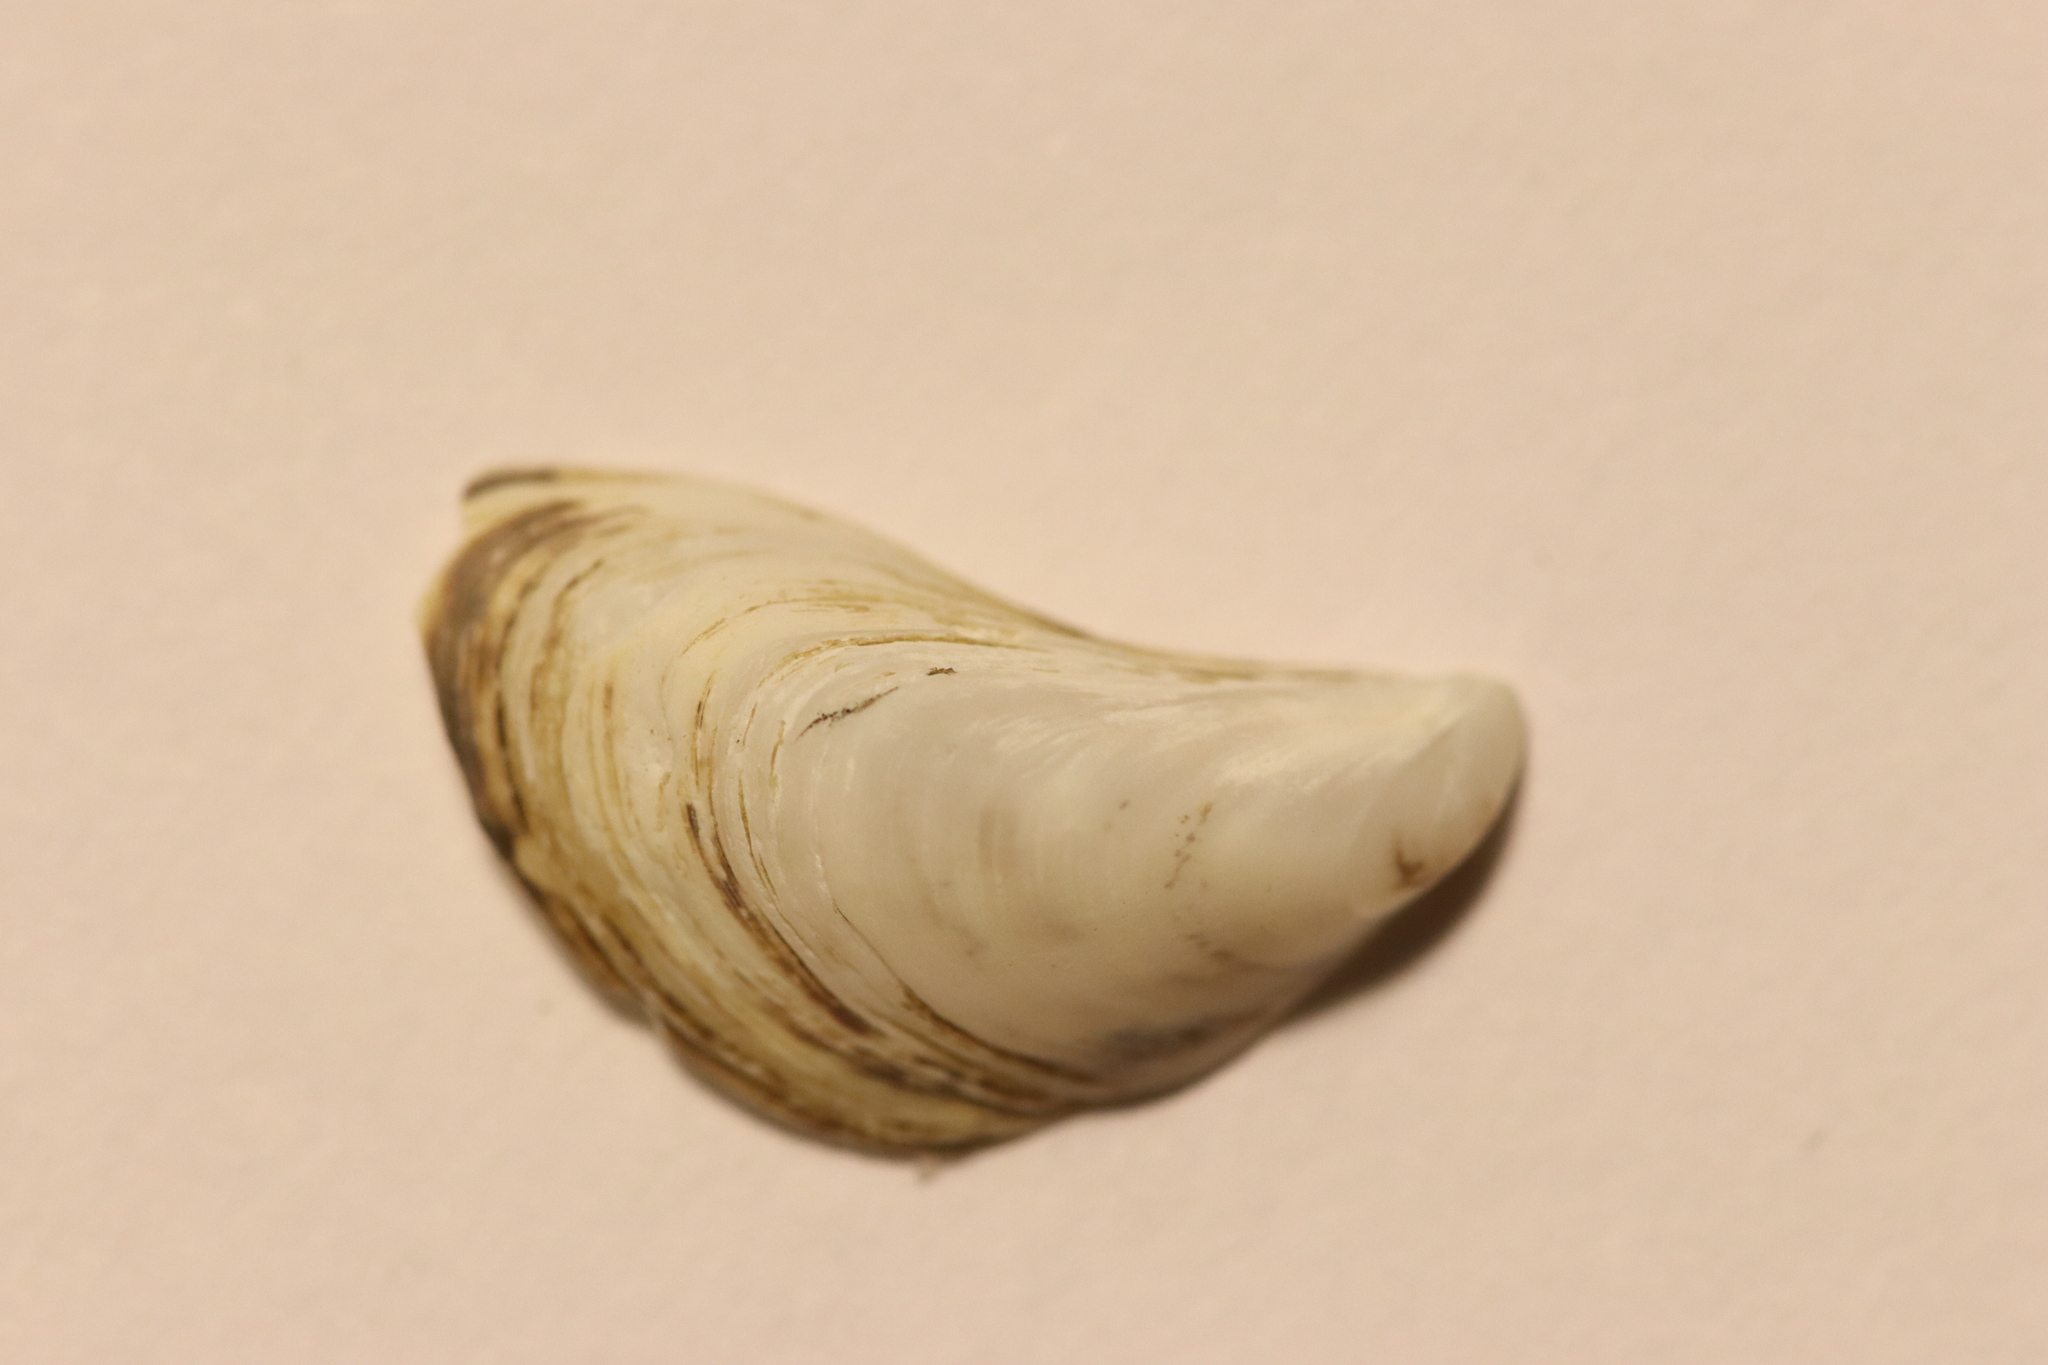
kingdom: Animalia
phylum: Mollusca
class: Bivalvia
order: Myida
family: Dreissenidae
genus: Dreissena
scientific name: Dreissena bugensis
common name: Quagga mussel
